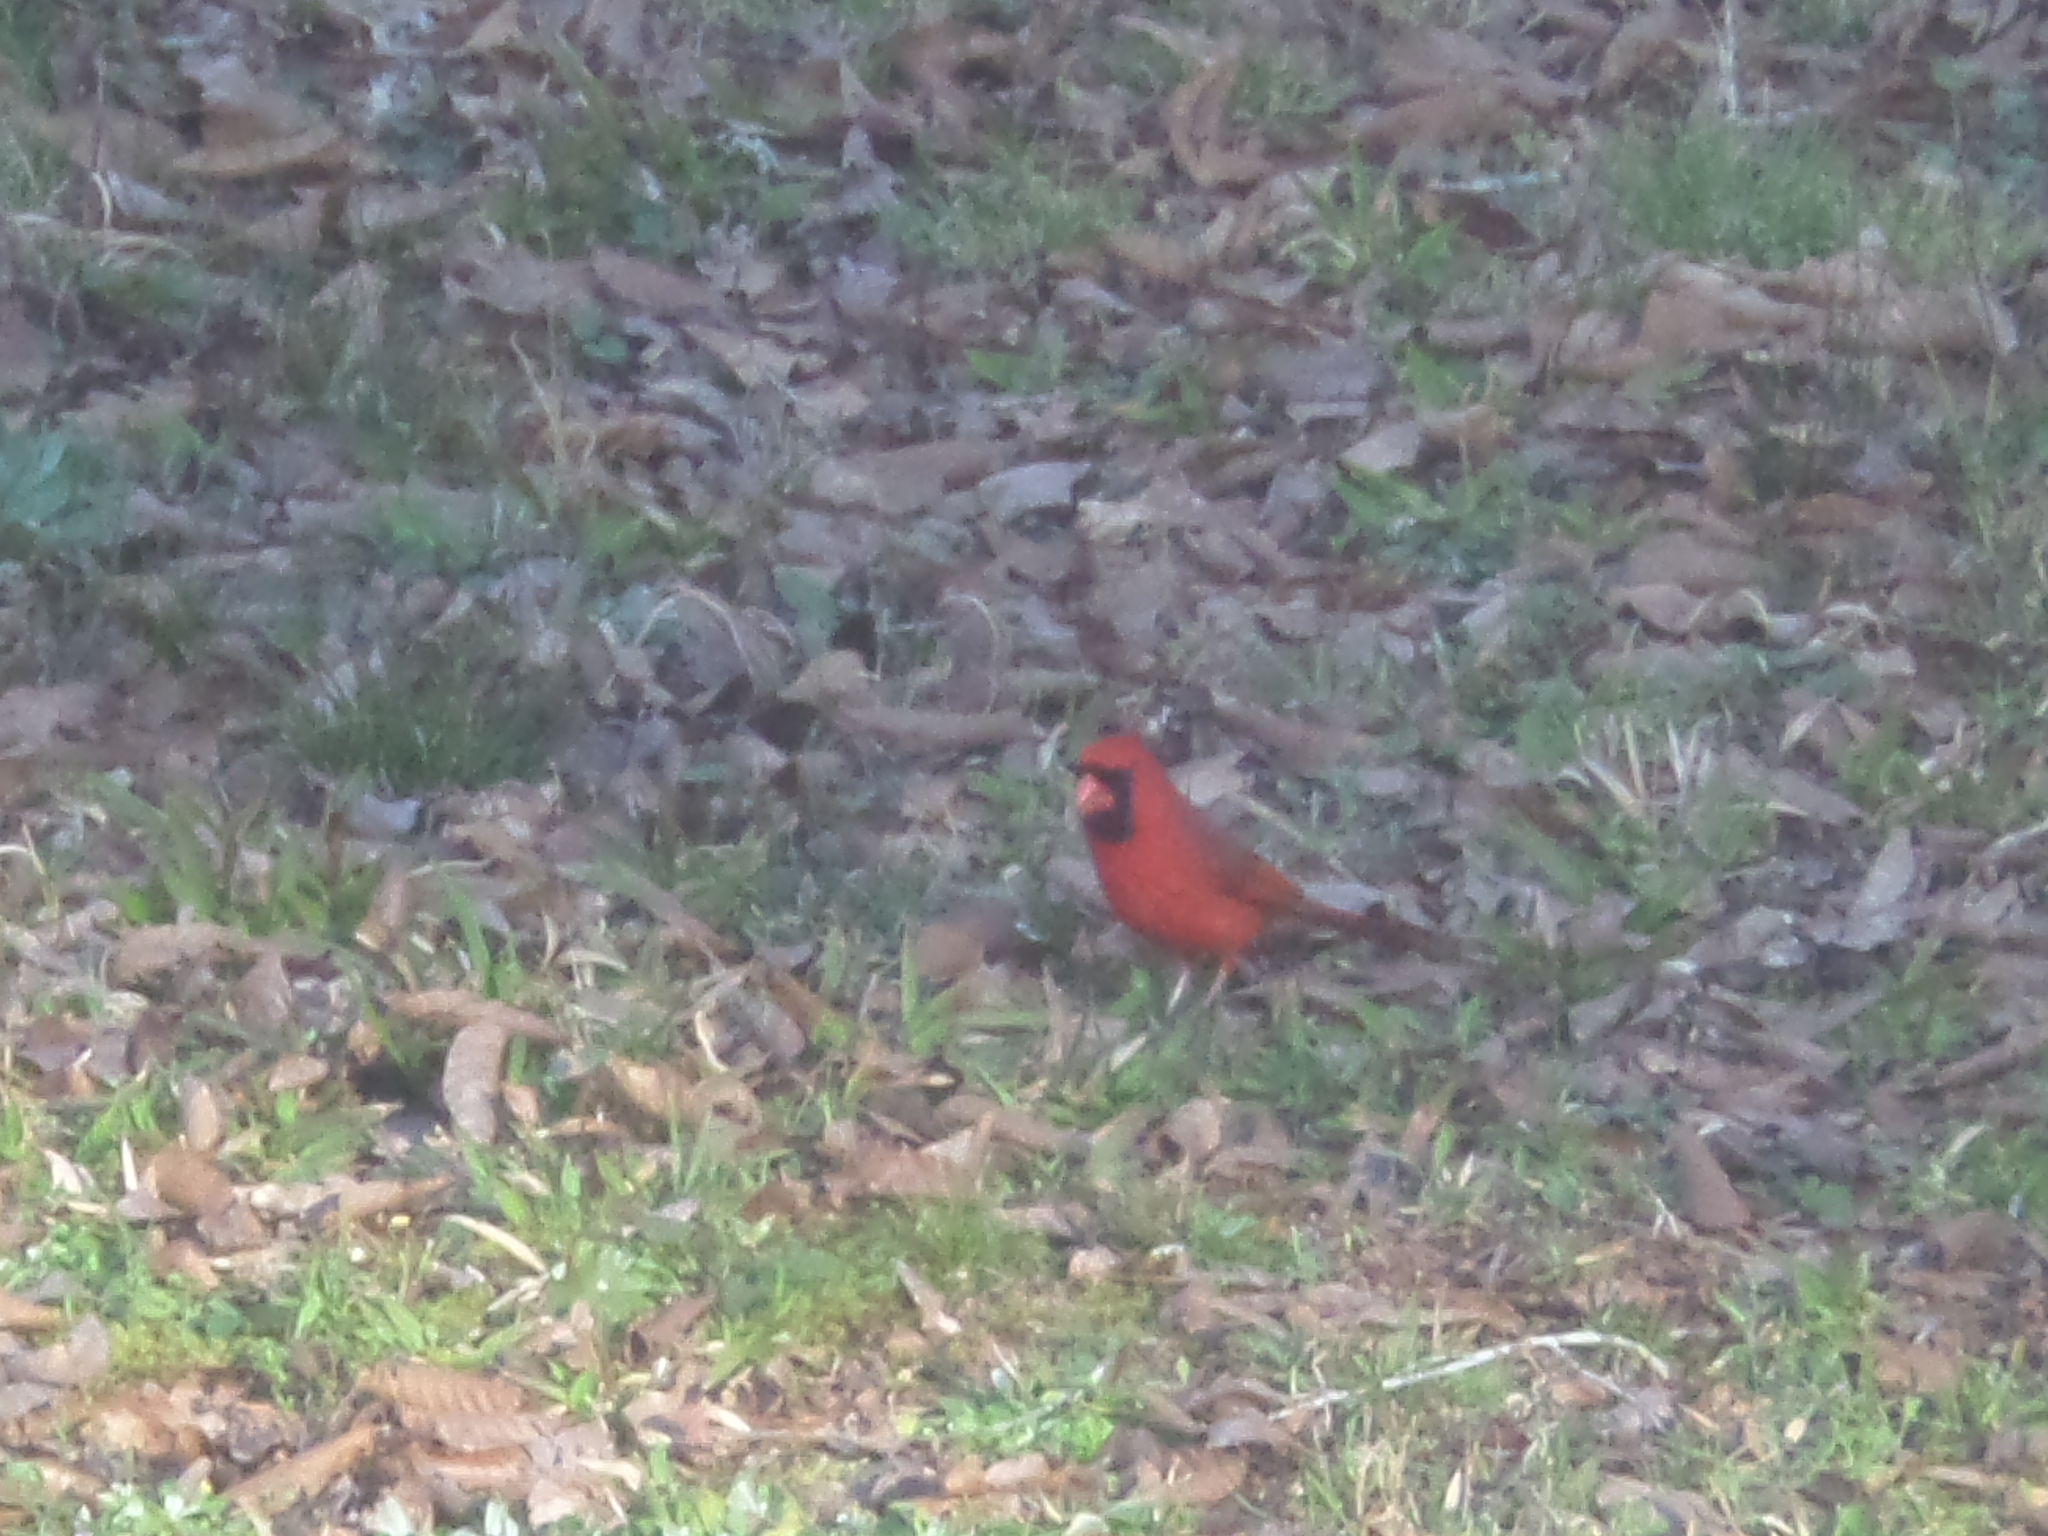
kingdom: Animalia
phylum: Chordata
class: Aves
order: Passeriformes
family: Cardinalidae
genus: Cardinalis
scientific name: Cardinalis cardinalis
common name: Northern cardinal
